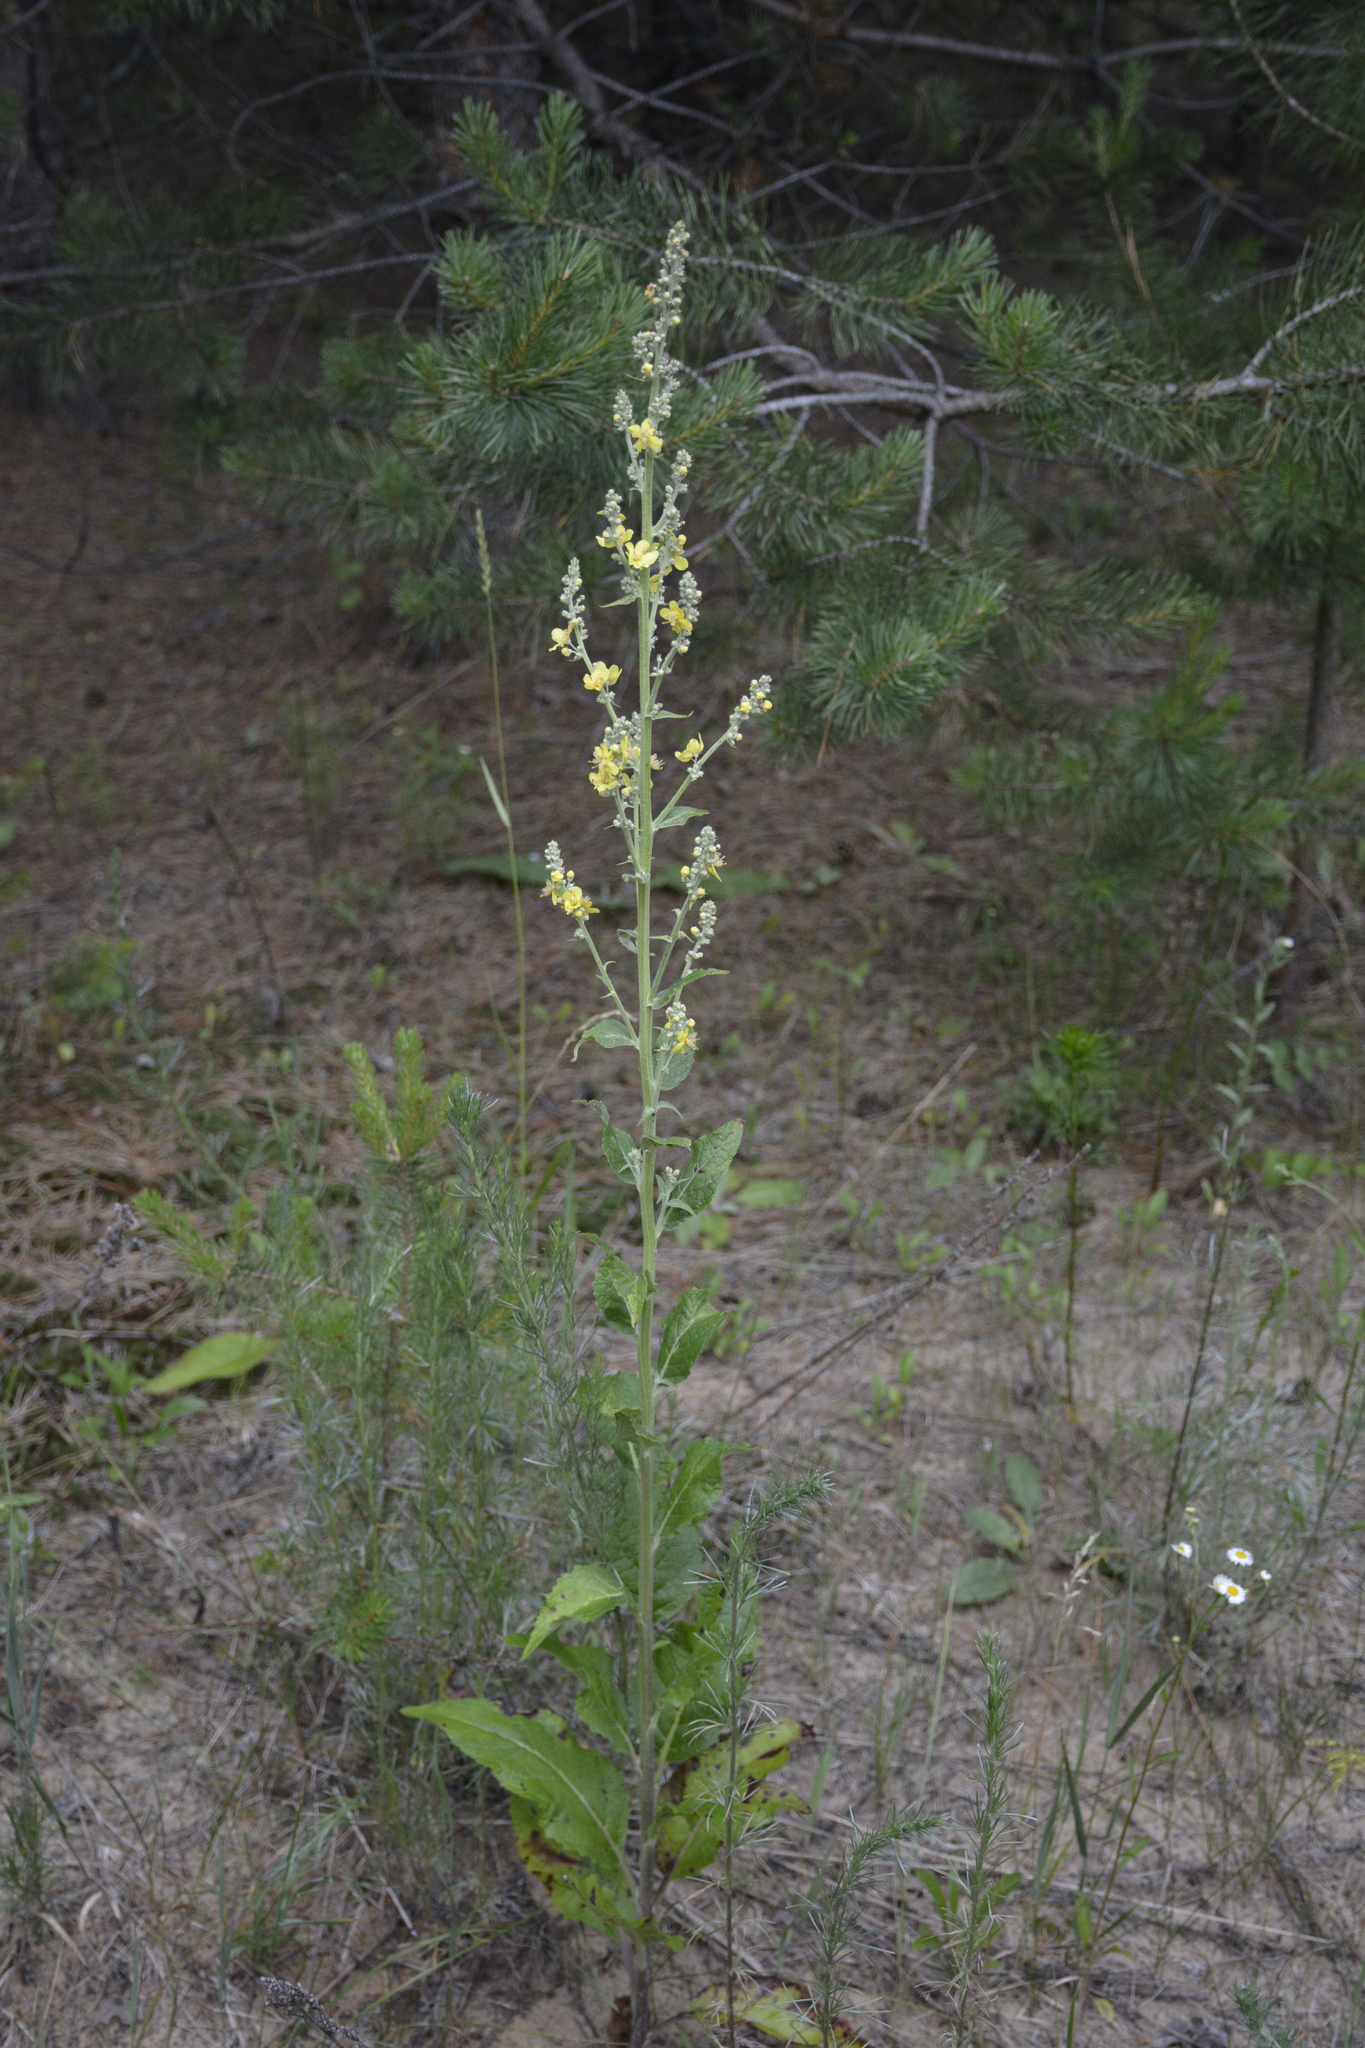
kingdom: Plantae
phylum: Tracheophyta
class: Magnoliopsida
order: Lamiales
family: Scrophulariaceae
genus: Verbascum
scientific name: Verbascum lychnitis
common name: White mullein
